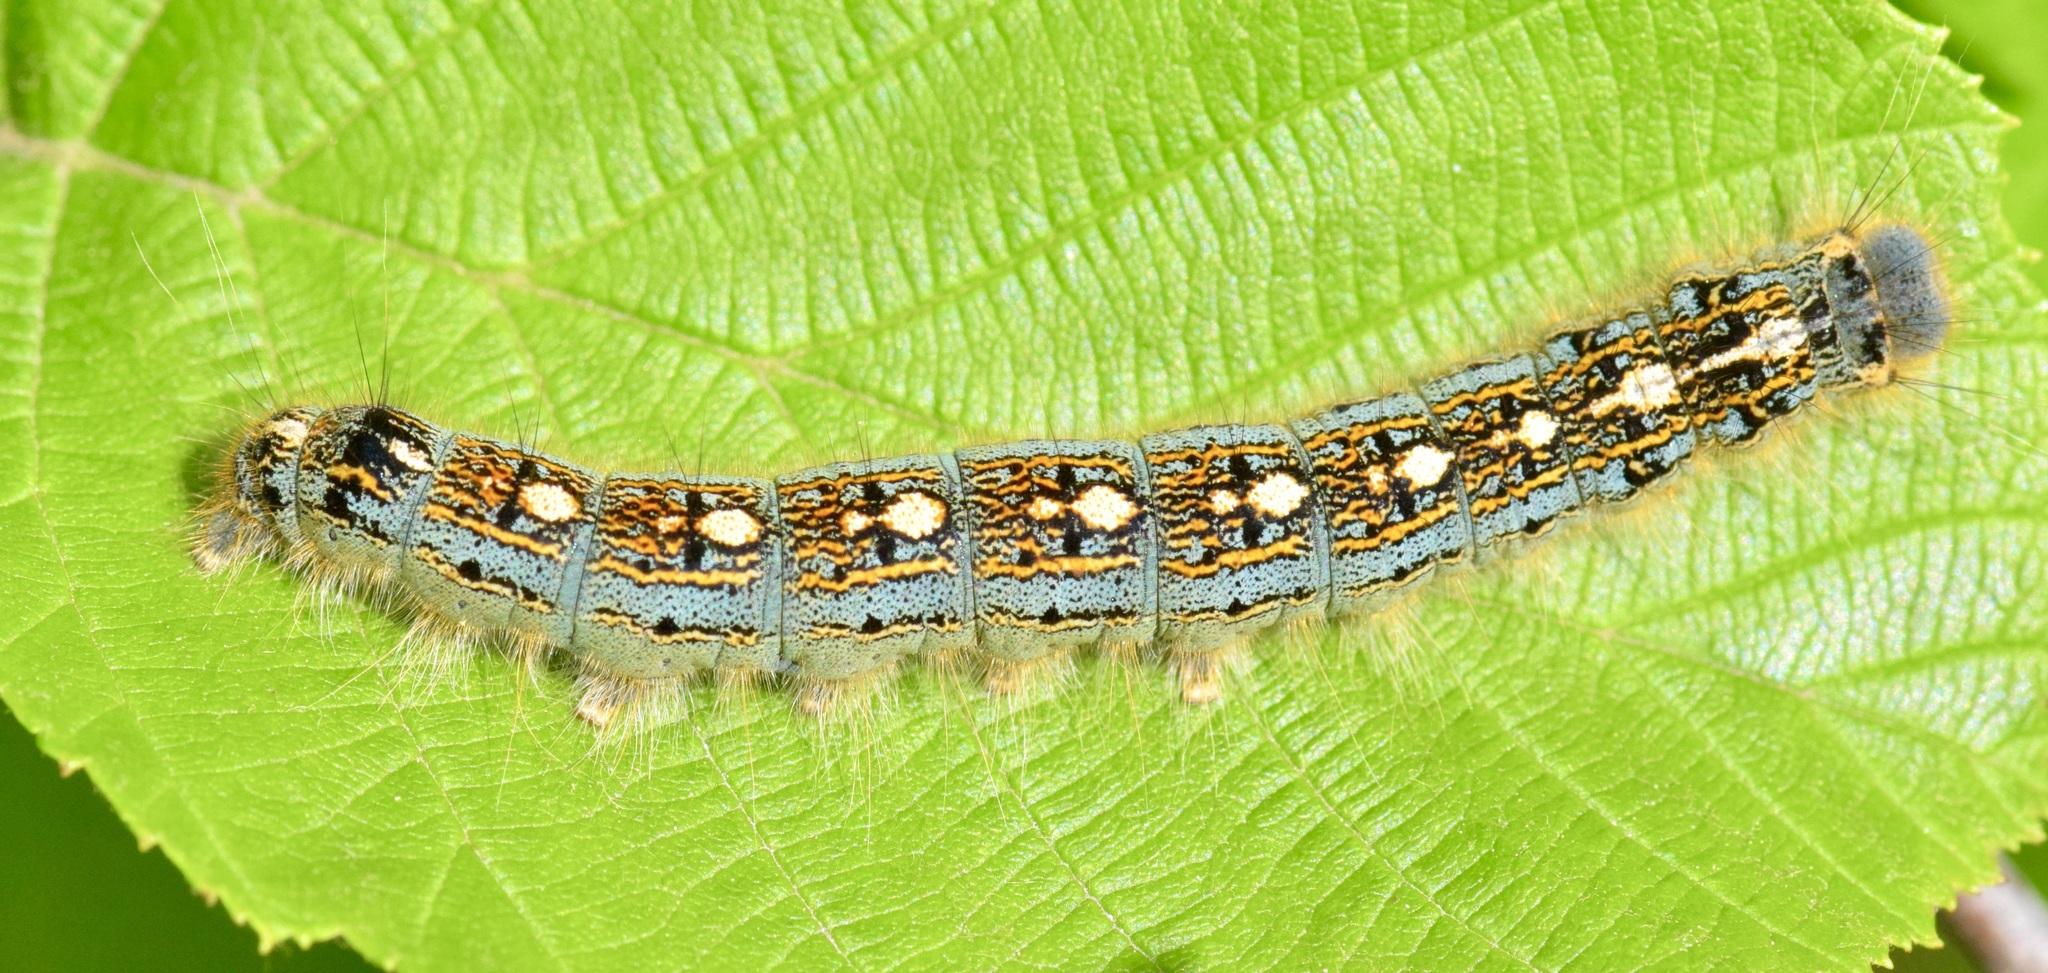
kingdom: Animalia
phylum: Arthropoda
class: Insecta
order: Lepidoptera
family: Lasiocampidae
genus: Malacosoma
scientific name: Malacosoma disstria
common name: Forest tent caterpillar
